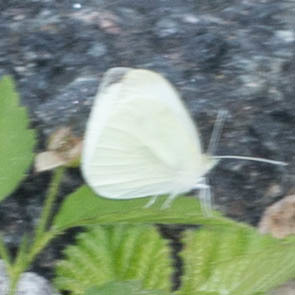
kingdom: Animalia
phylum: Arthropoda
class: Insecta
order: Lepidoptera
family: Pieridae
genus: Pieris
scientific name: Pieris rapae
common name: Small white
